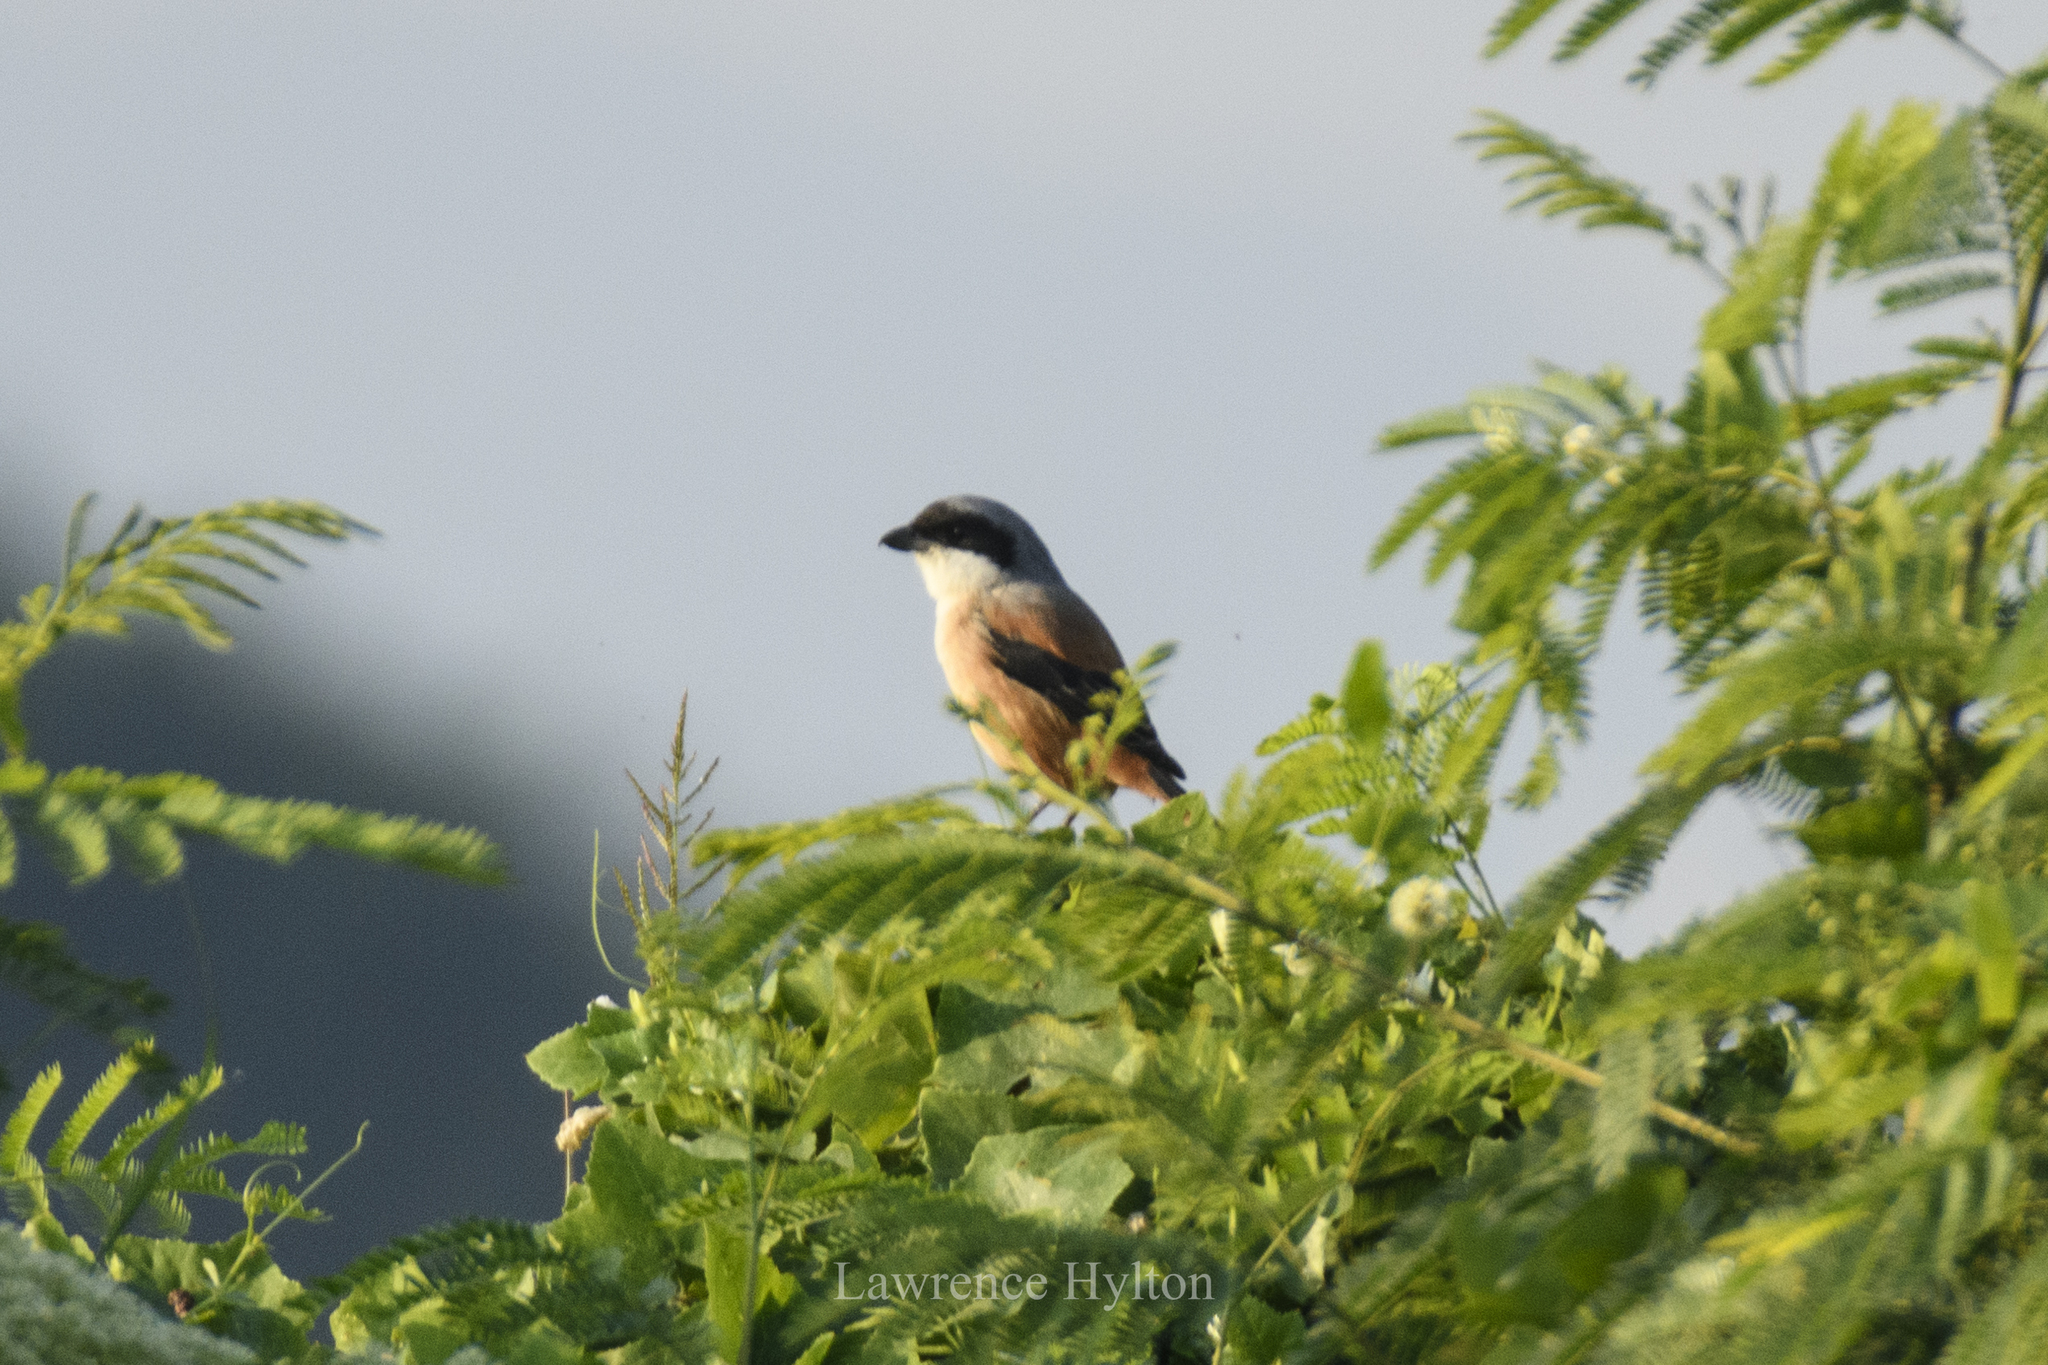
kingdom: Animalia
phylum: Chordata
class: Aves
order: Passeriformes
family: Laniidae
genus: Lanius
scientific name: Lanius schach
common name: Long-tailed shrike
